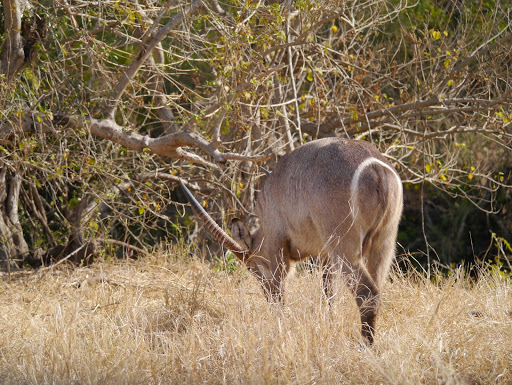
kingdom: Animalia
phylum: Chordata
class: Mammalia
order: Artiodactyla
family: Bovidae
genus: Kobus
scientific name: Kobus ellipsiprymnus
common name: Waterbuck
